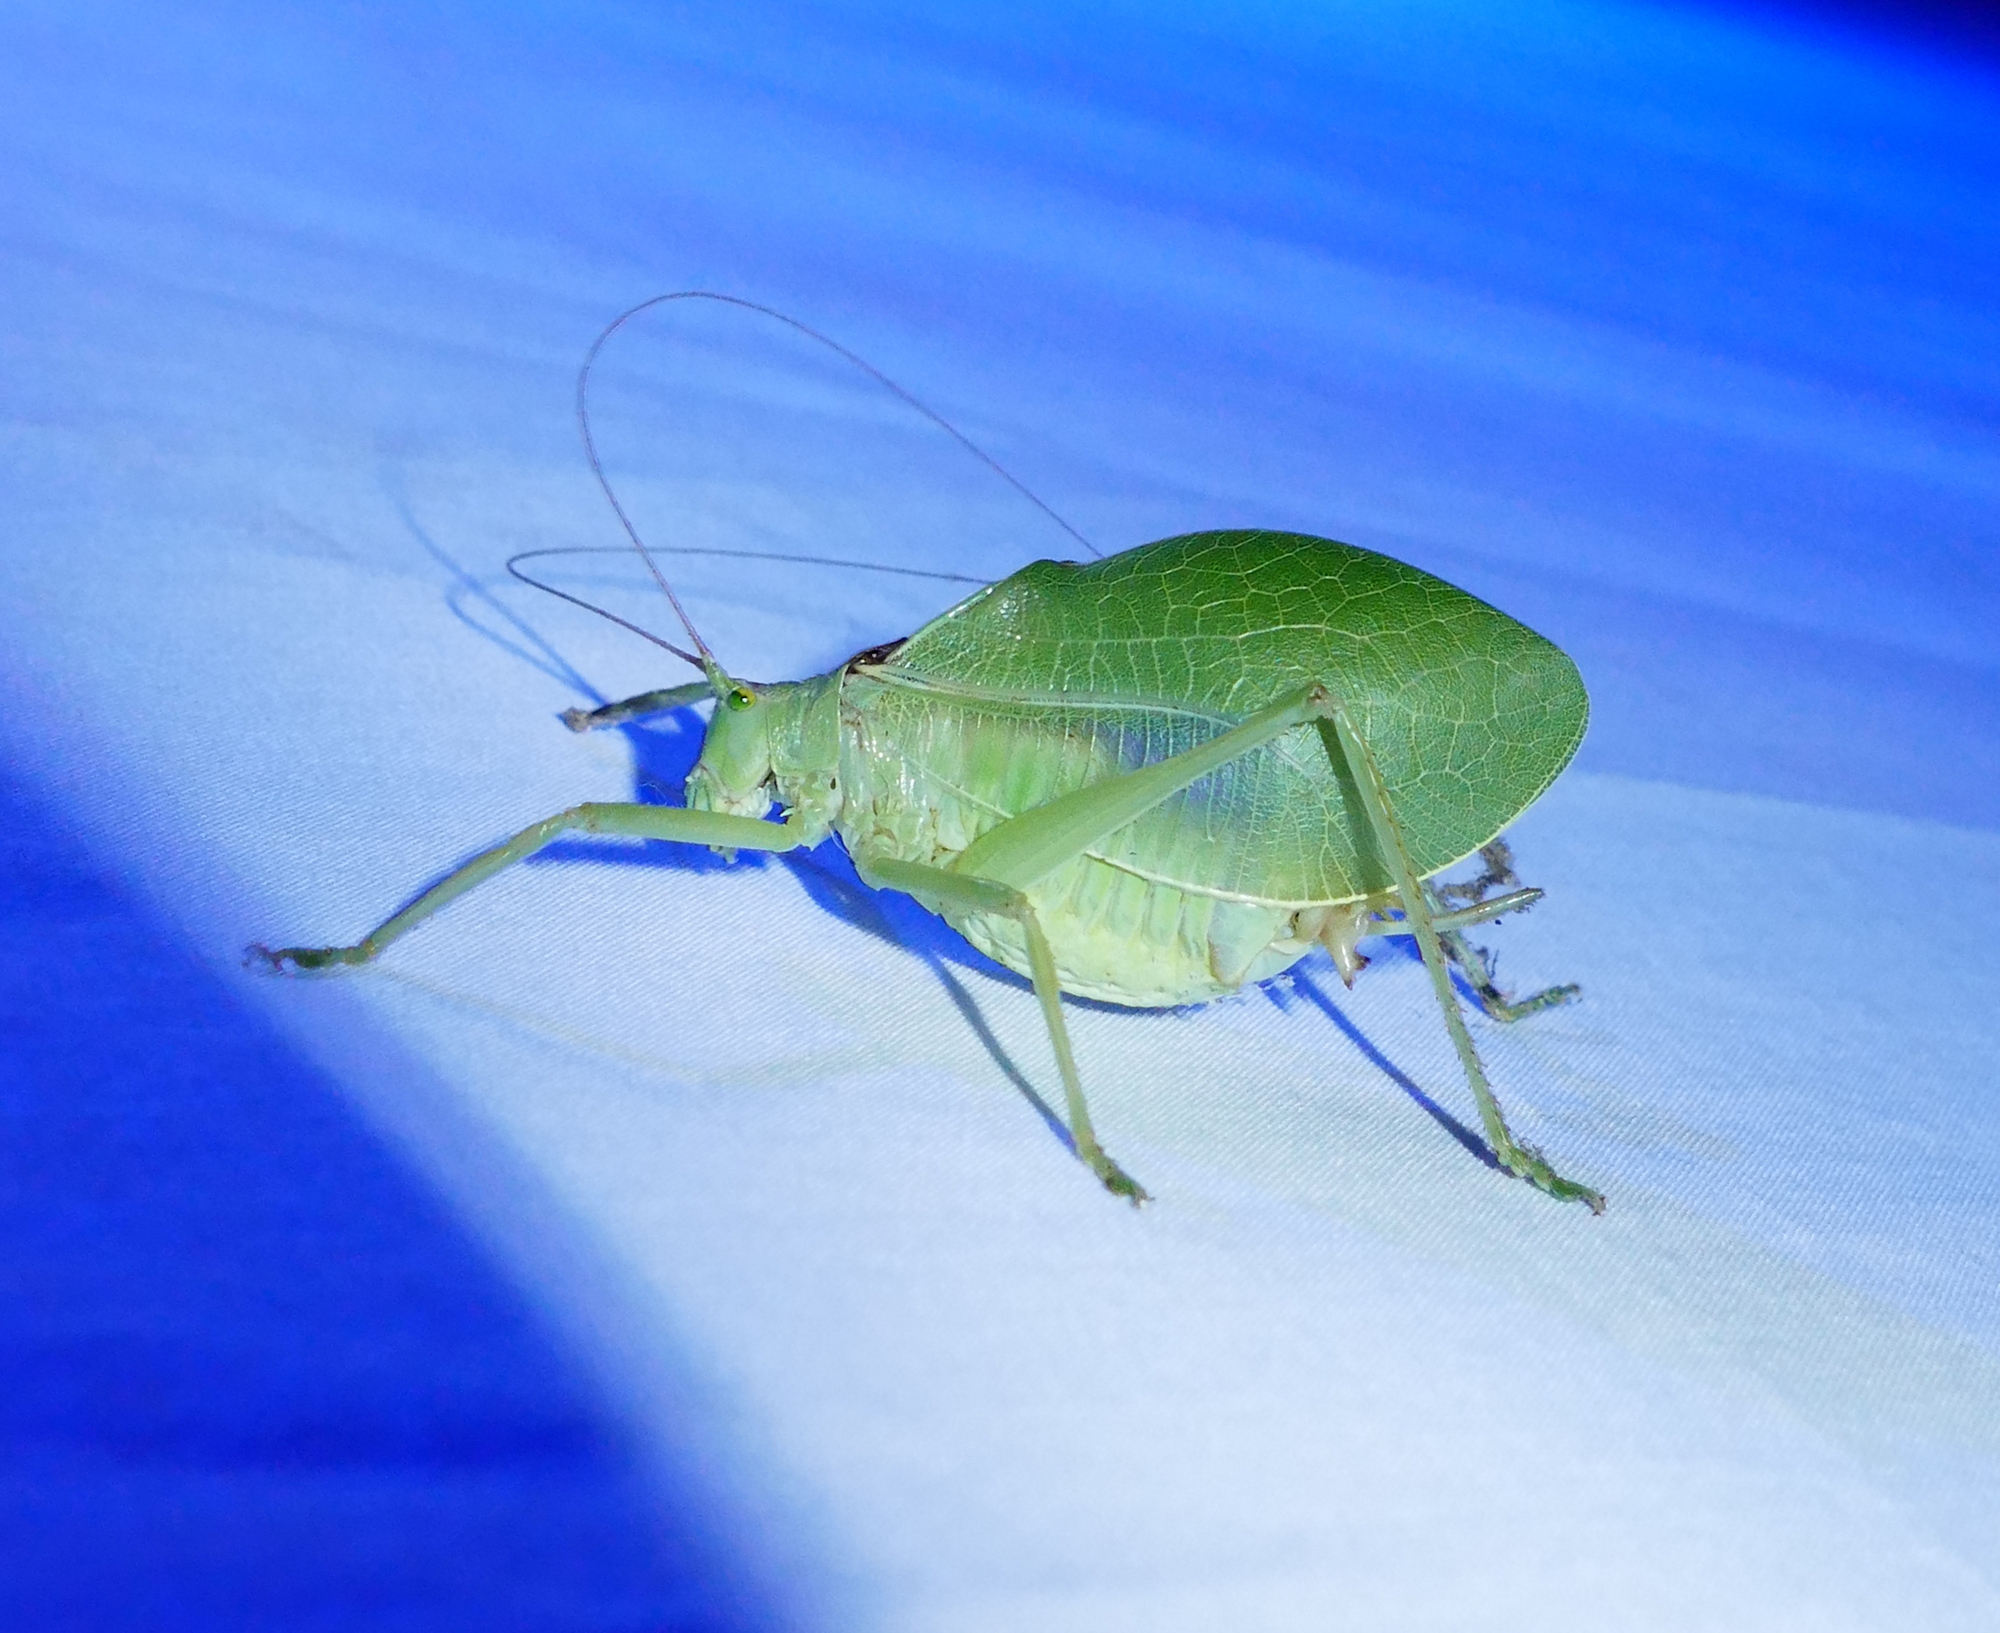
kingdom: Animalia
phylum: Arthropoda
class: Insecta
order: Orthoptera
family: Tettigoniidae
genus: Pterophylla
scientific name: Pterophylla camellifolia
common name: Common true katydid
